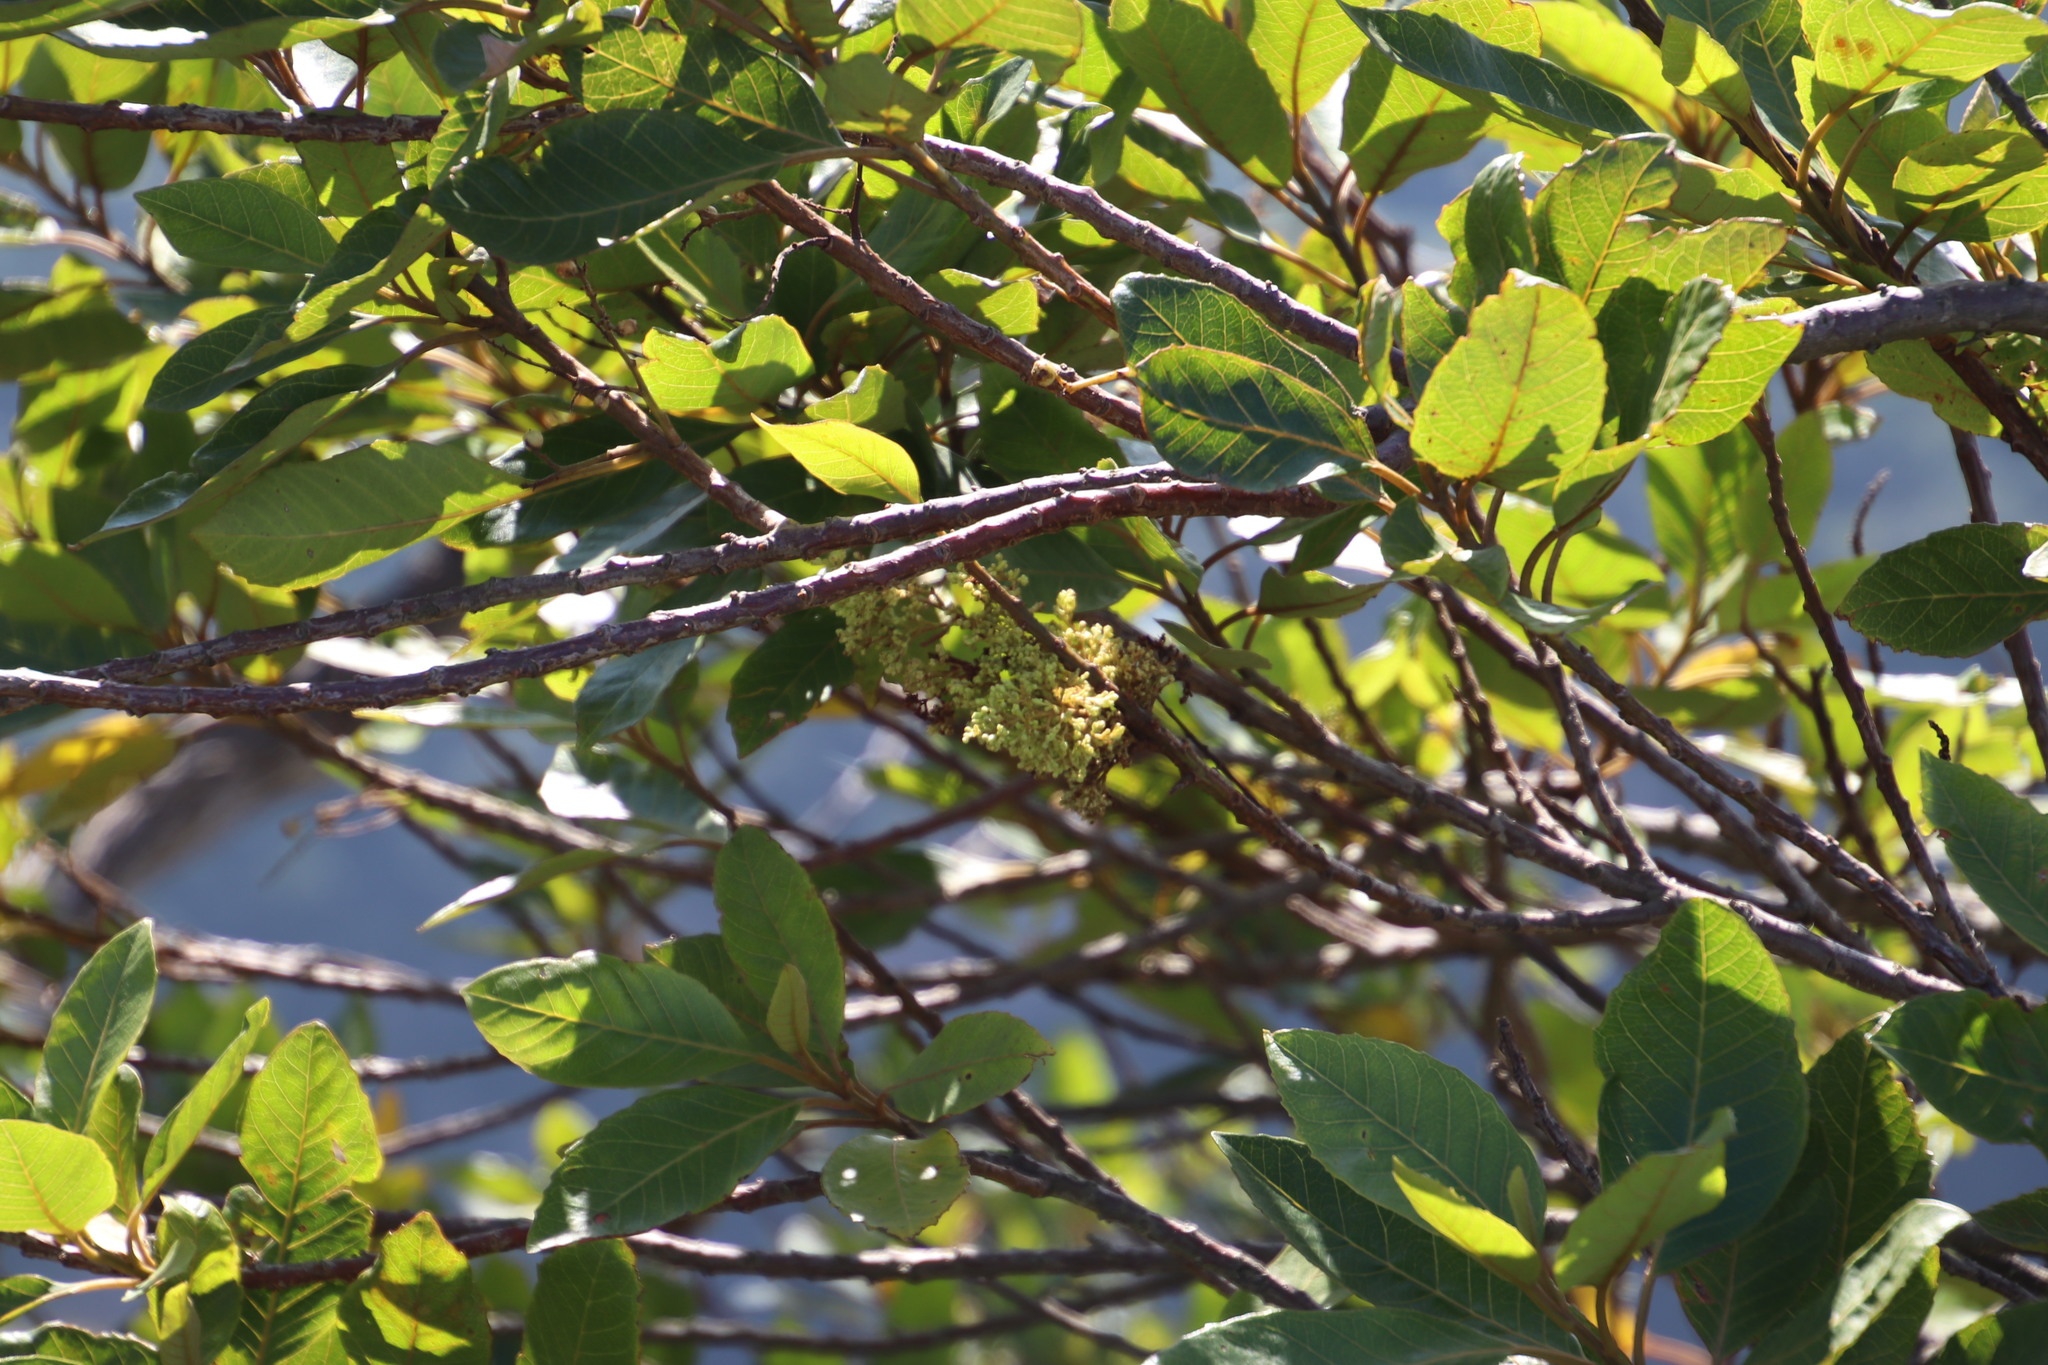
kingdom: Plantae
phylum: Tracheophyta
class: Magnoliopsida
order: Ericales
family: Primulaceae
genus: Maesa
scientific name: Maesa lanceolata
